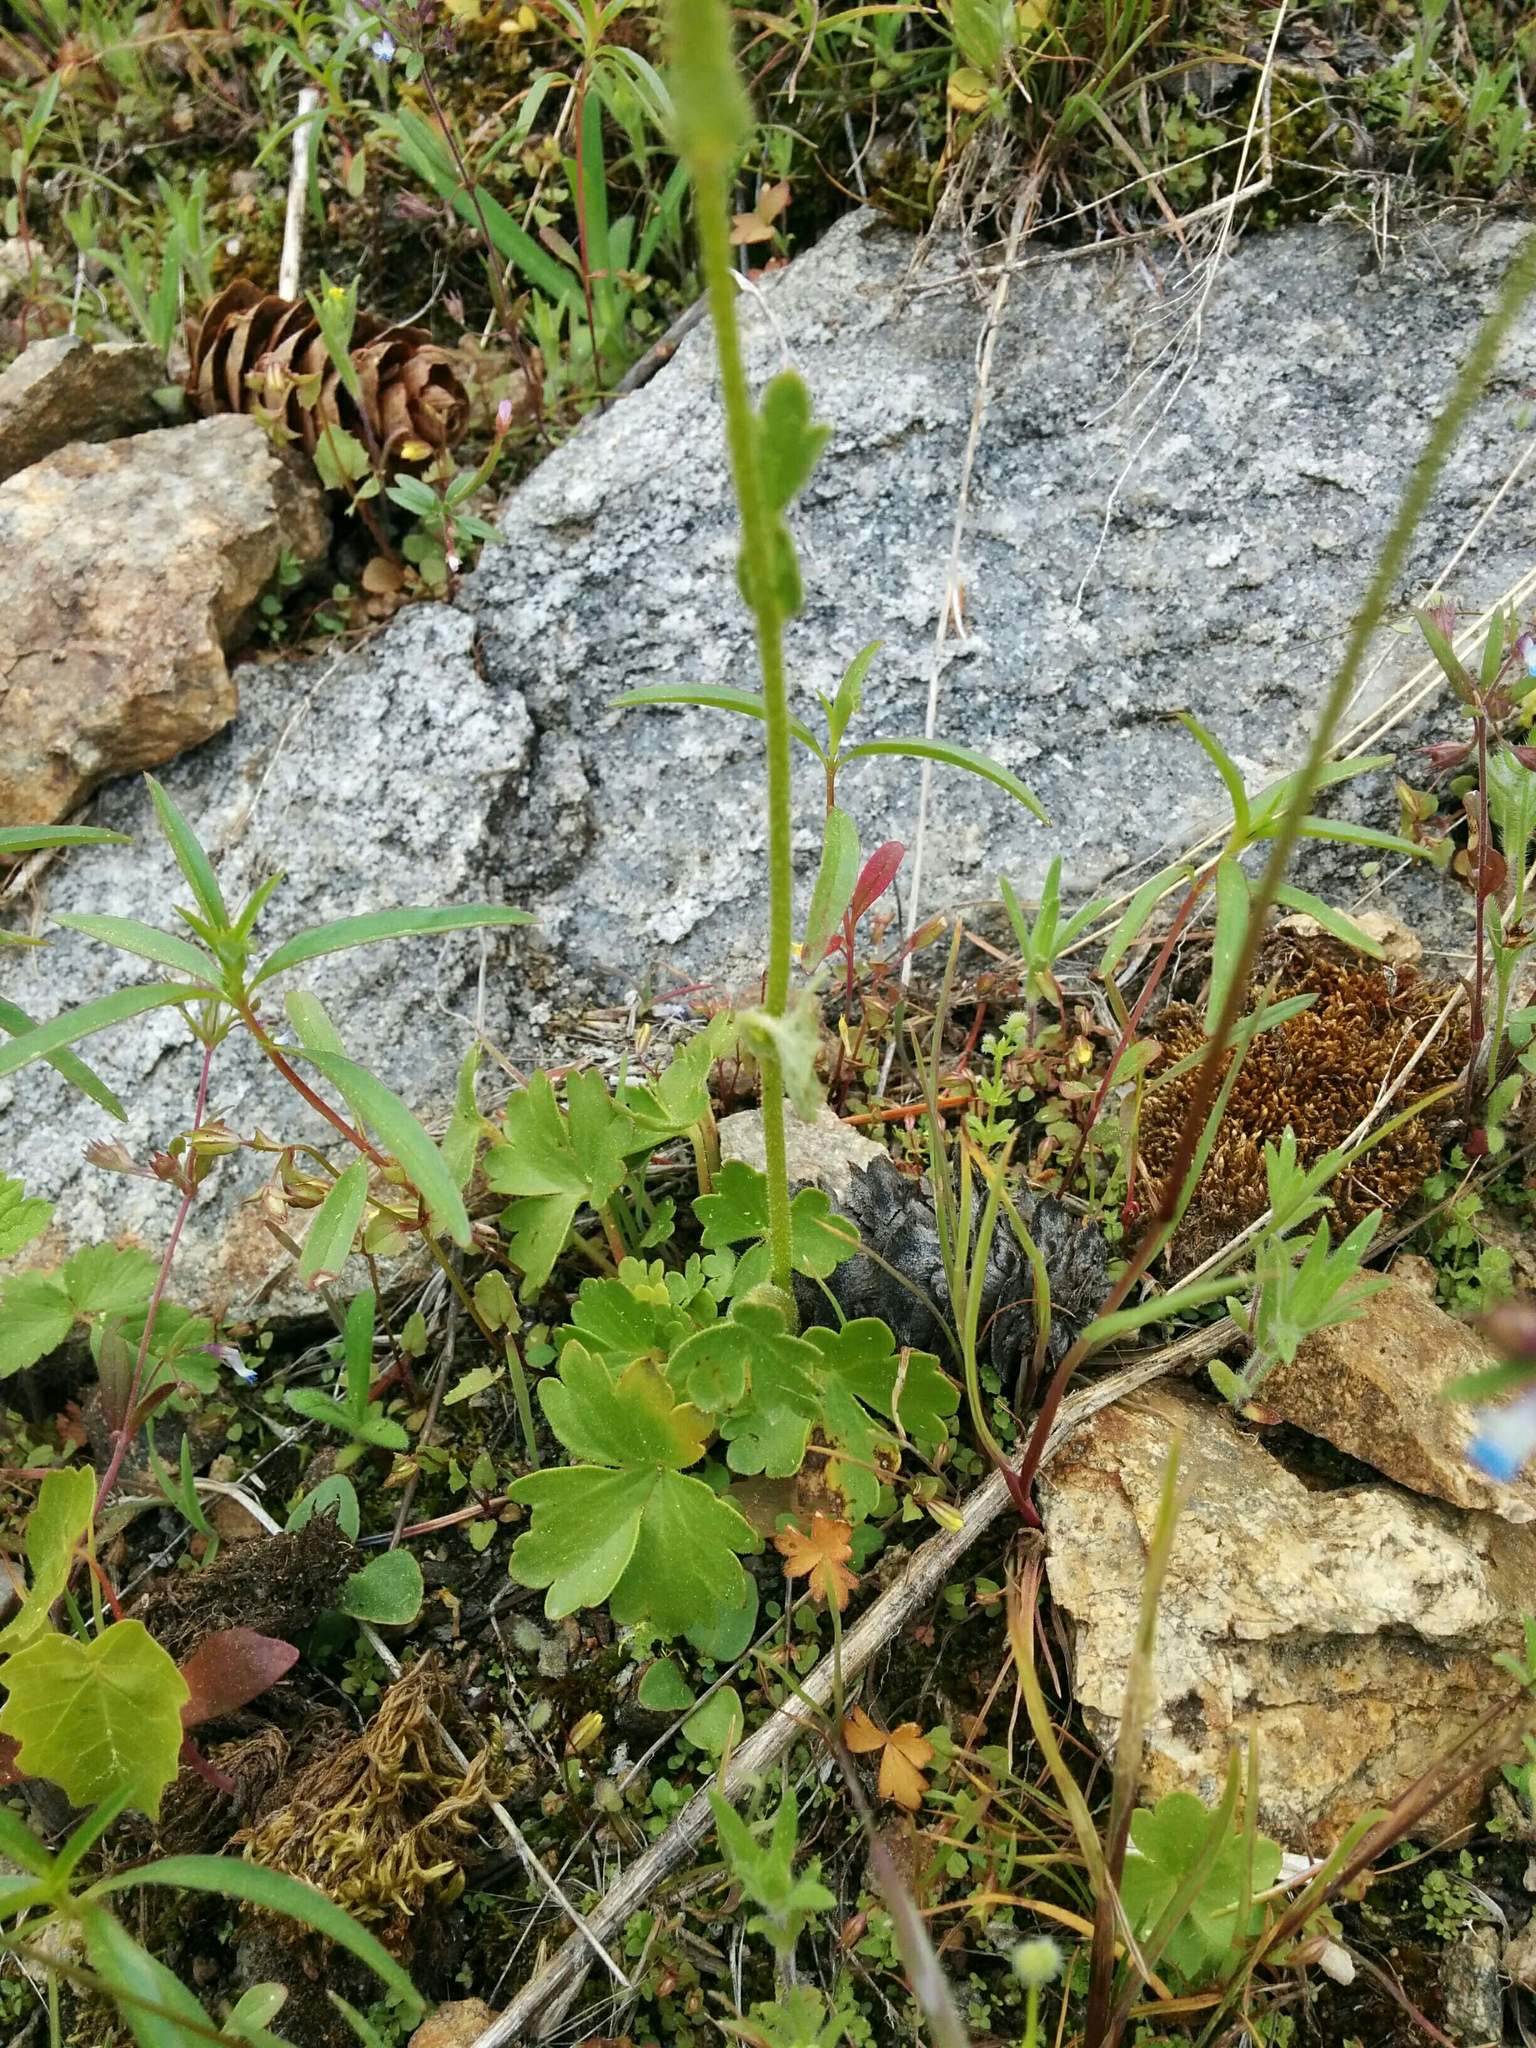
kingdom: Plantae
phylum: Tracheophyta
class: Magnoliopsida
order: Saxifragales
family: Saxifragaceae
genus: Hemieva
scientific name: Hemieva ranunculifolia
